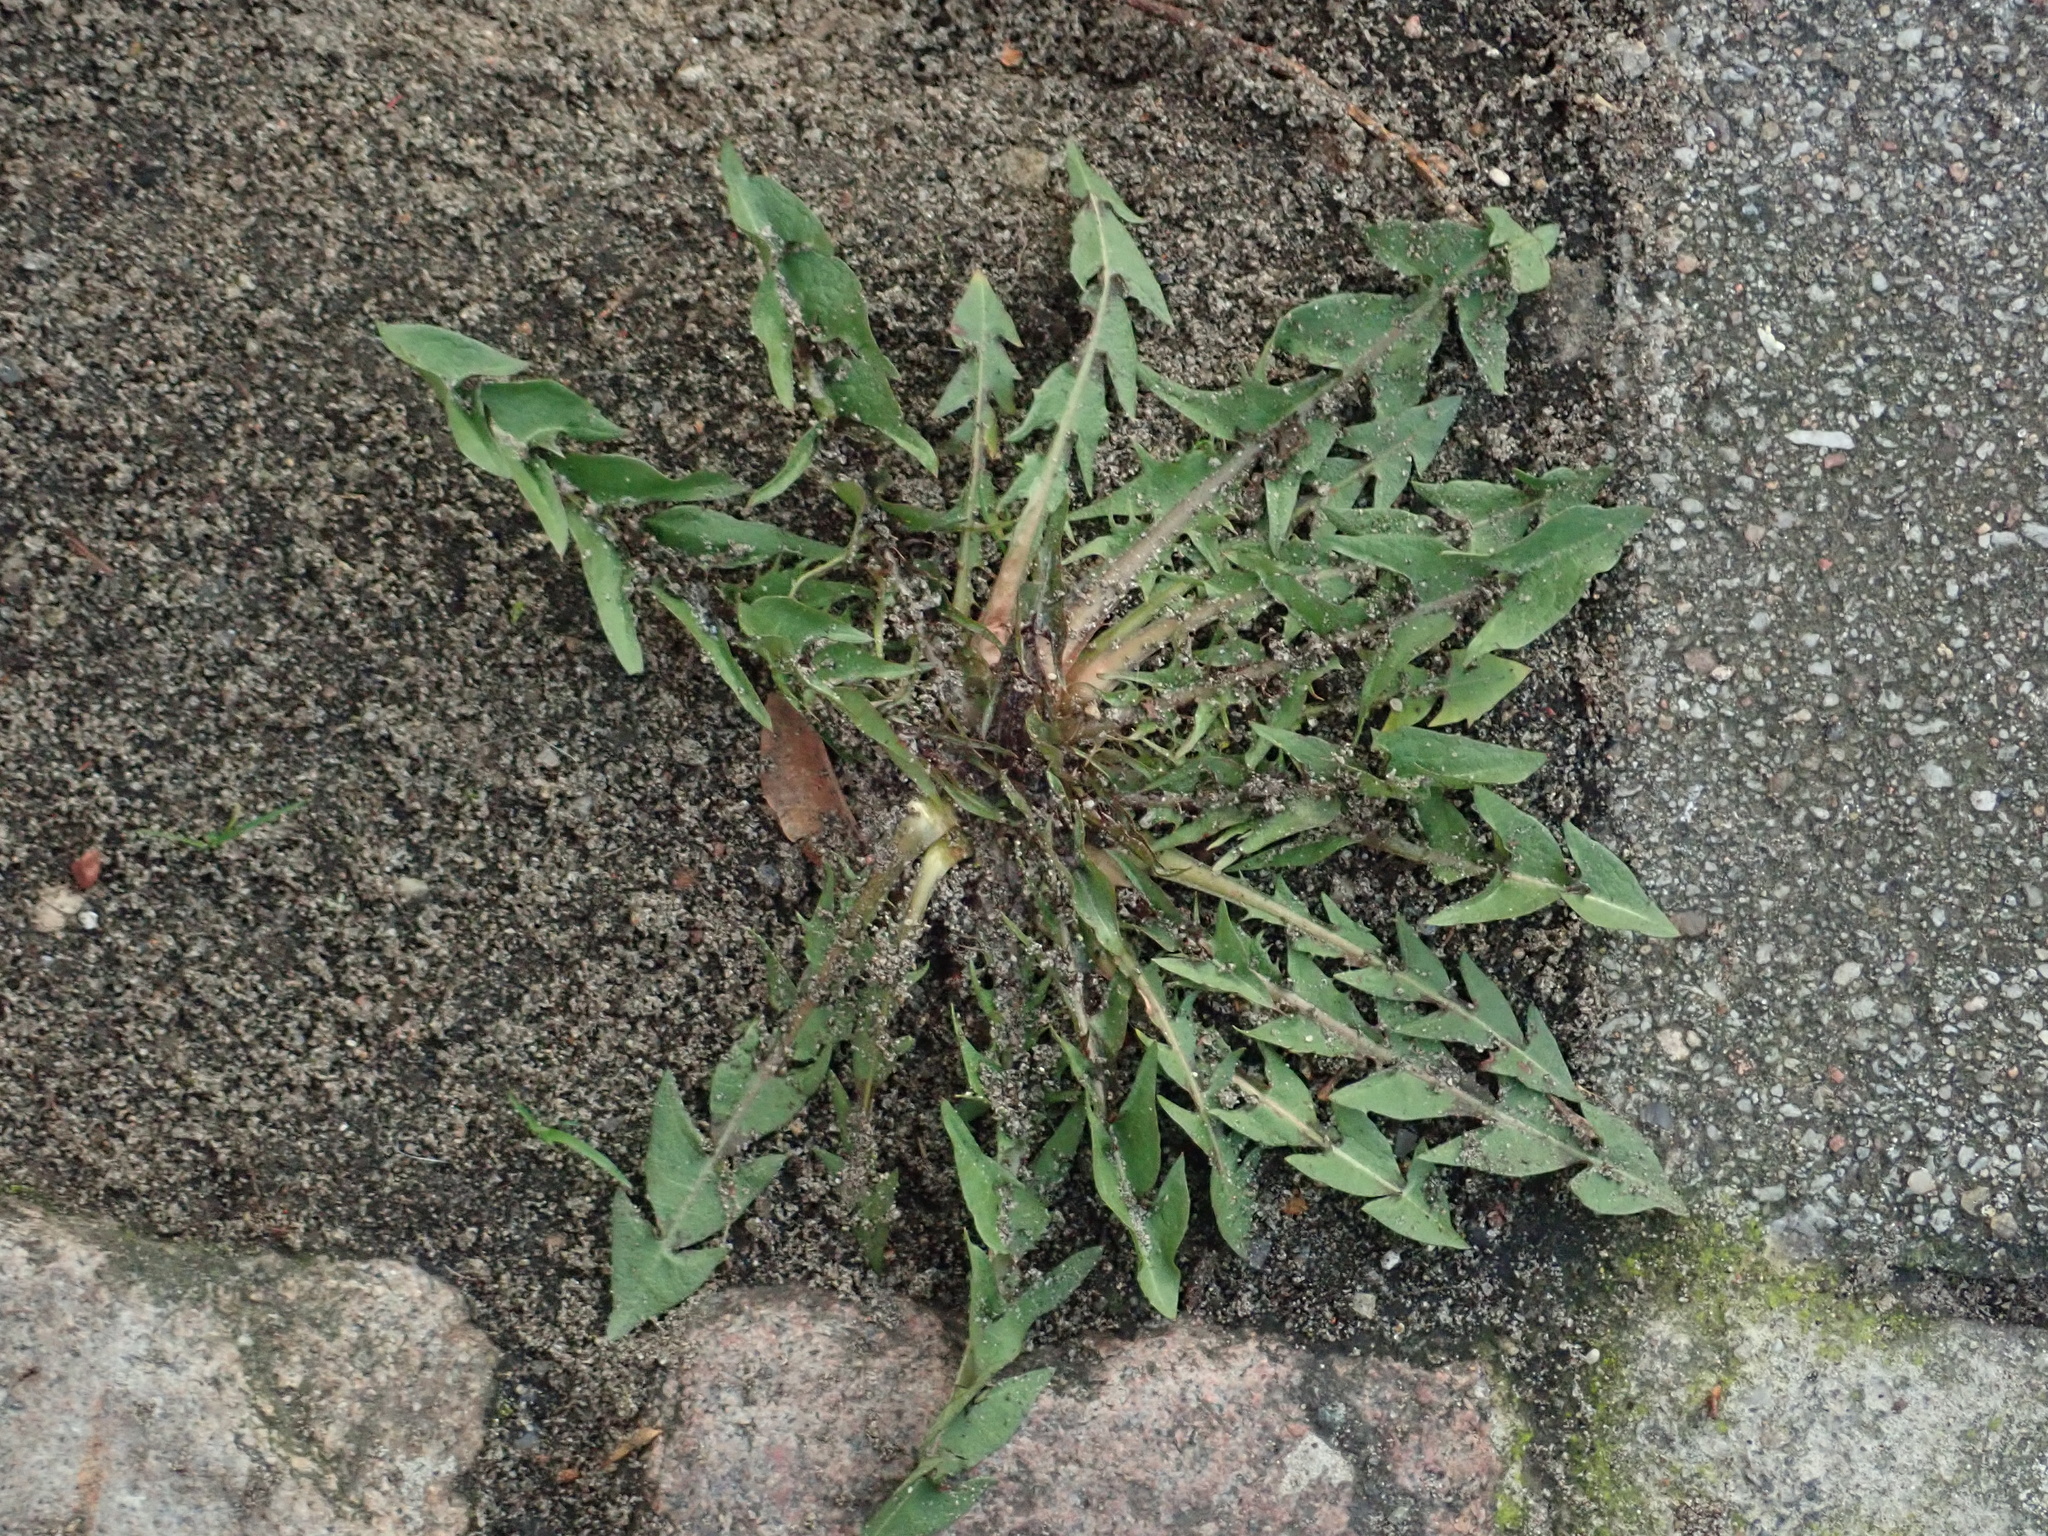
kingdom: Plantae
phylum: Tracheophyta
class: Magnoliopsida
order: Asterales
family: Asteraceae
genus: Taraxacum
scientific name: Taraxacum officinale
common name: Common dandelion
